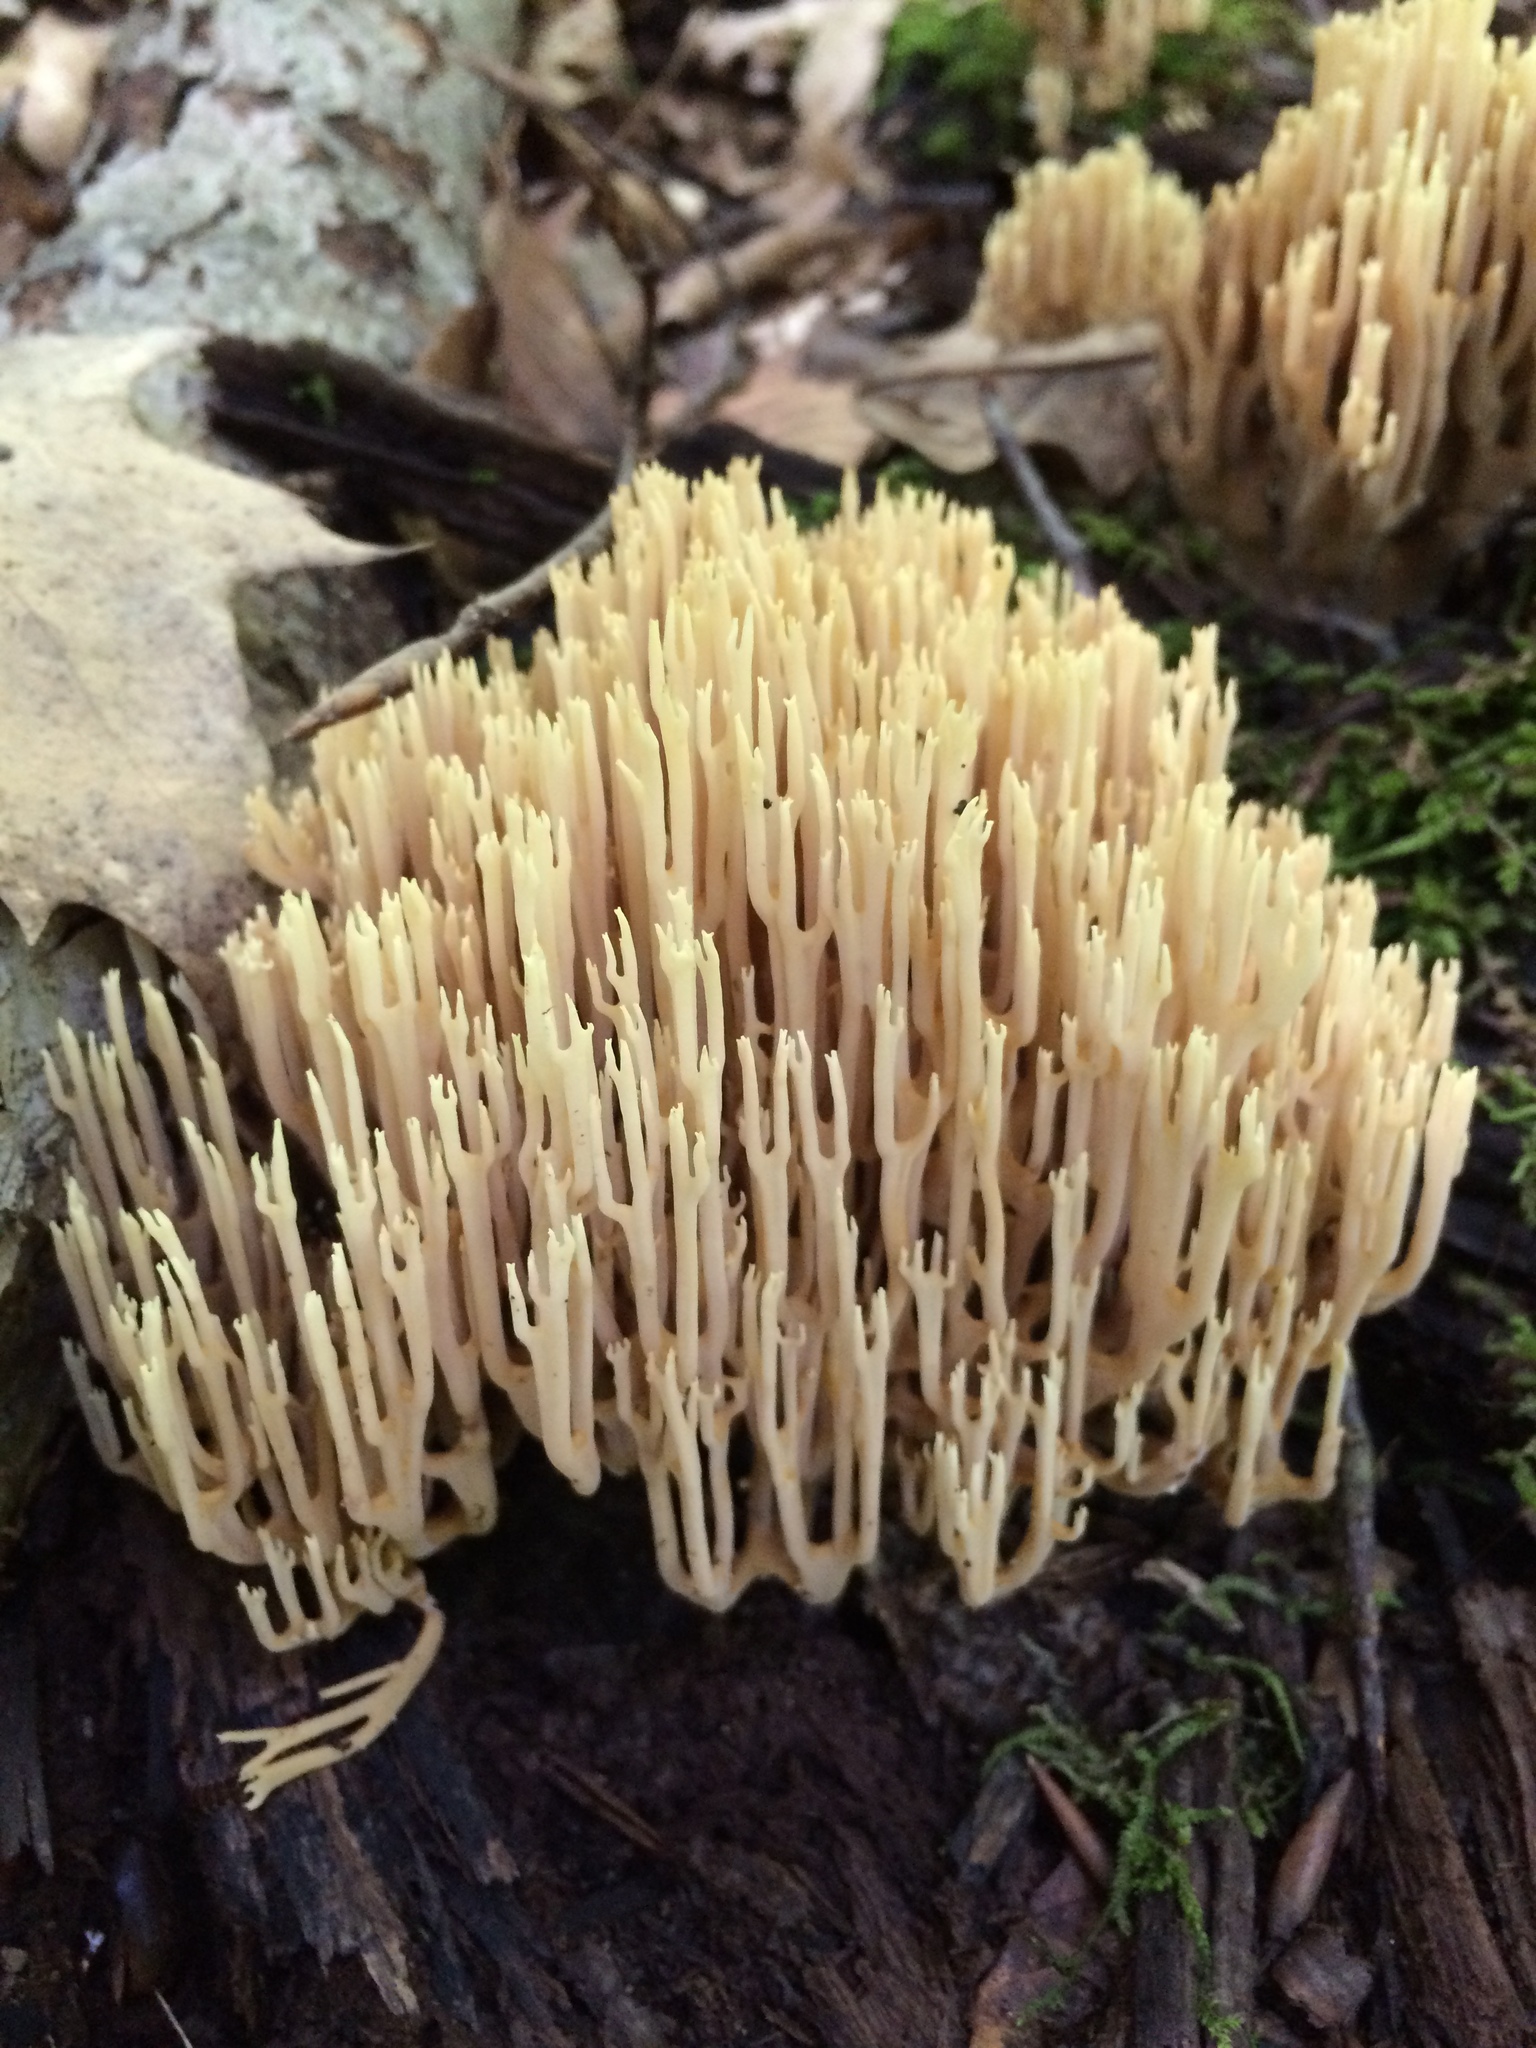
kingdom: Fungi
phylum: Basidiomycota
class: Agaricomycetes
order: Gomphales
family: Gomphaceae
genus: Ramaria
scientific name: Ramaria stricta
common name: Upright coral
